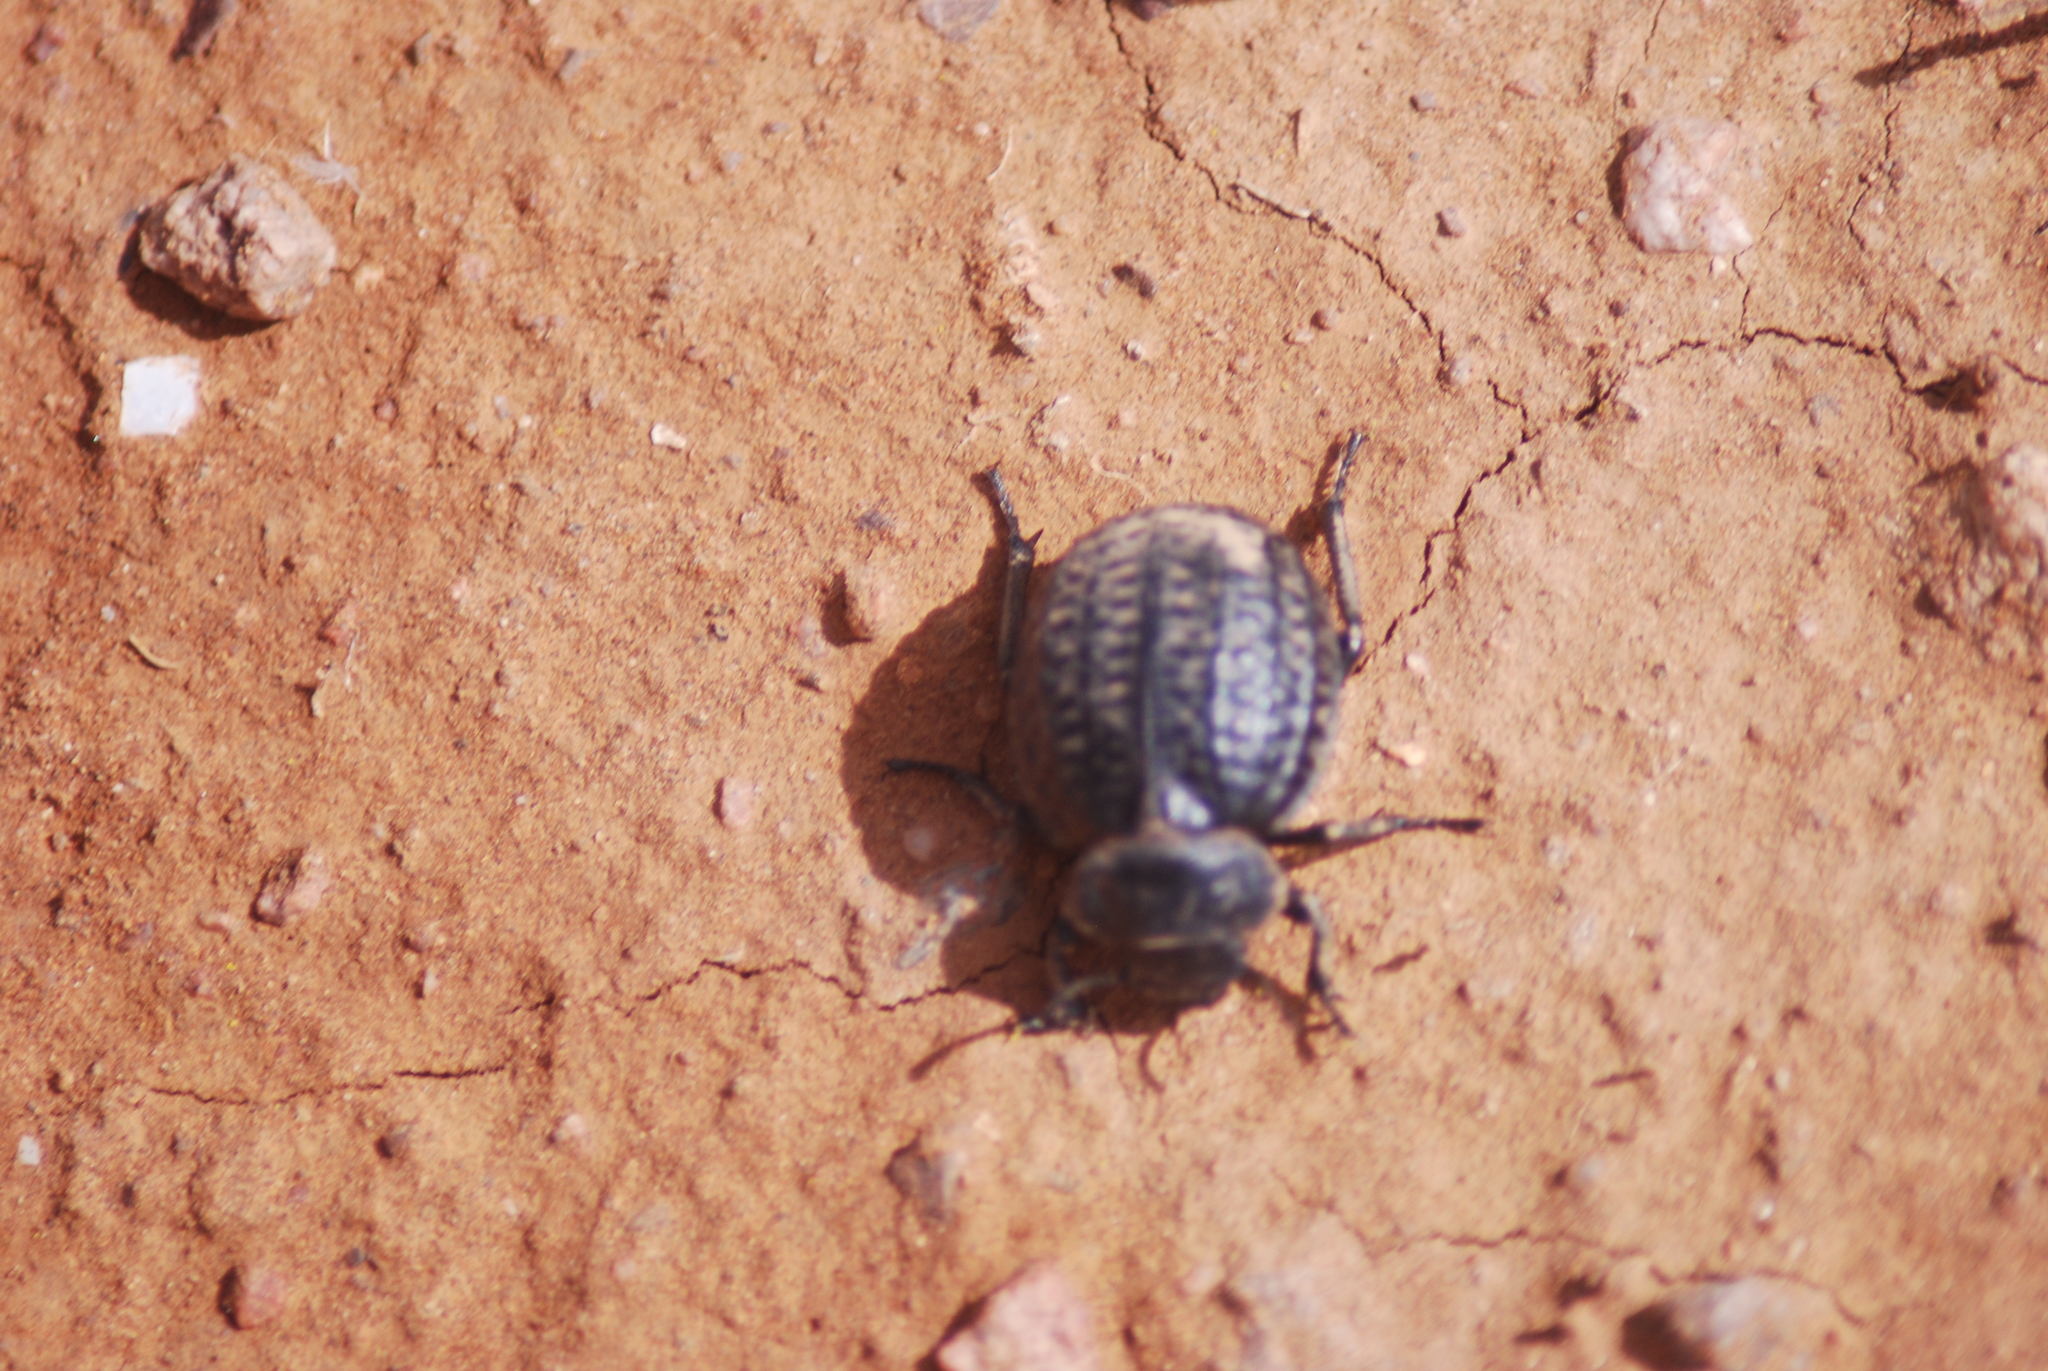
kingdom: Animalia
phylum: Arthropoda
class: Insecta
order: Coleoptera
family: Tenebrionidae
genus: Pimelia
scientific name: Pimelia rugosa
